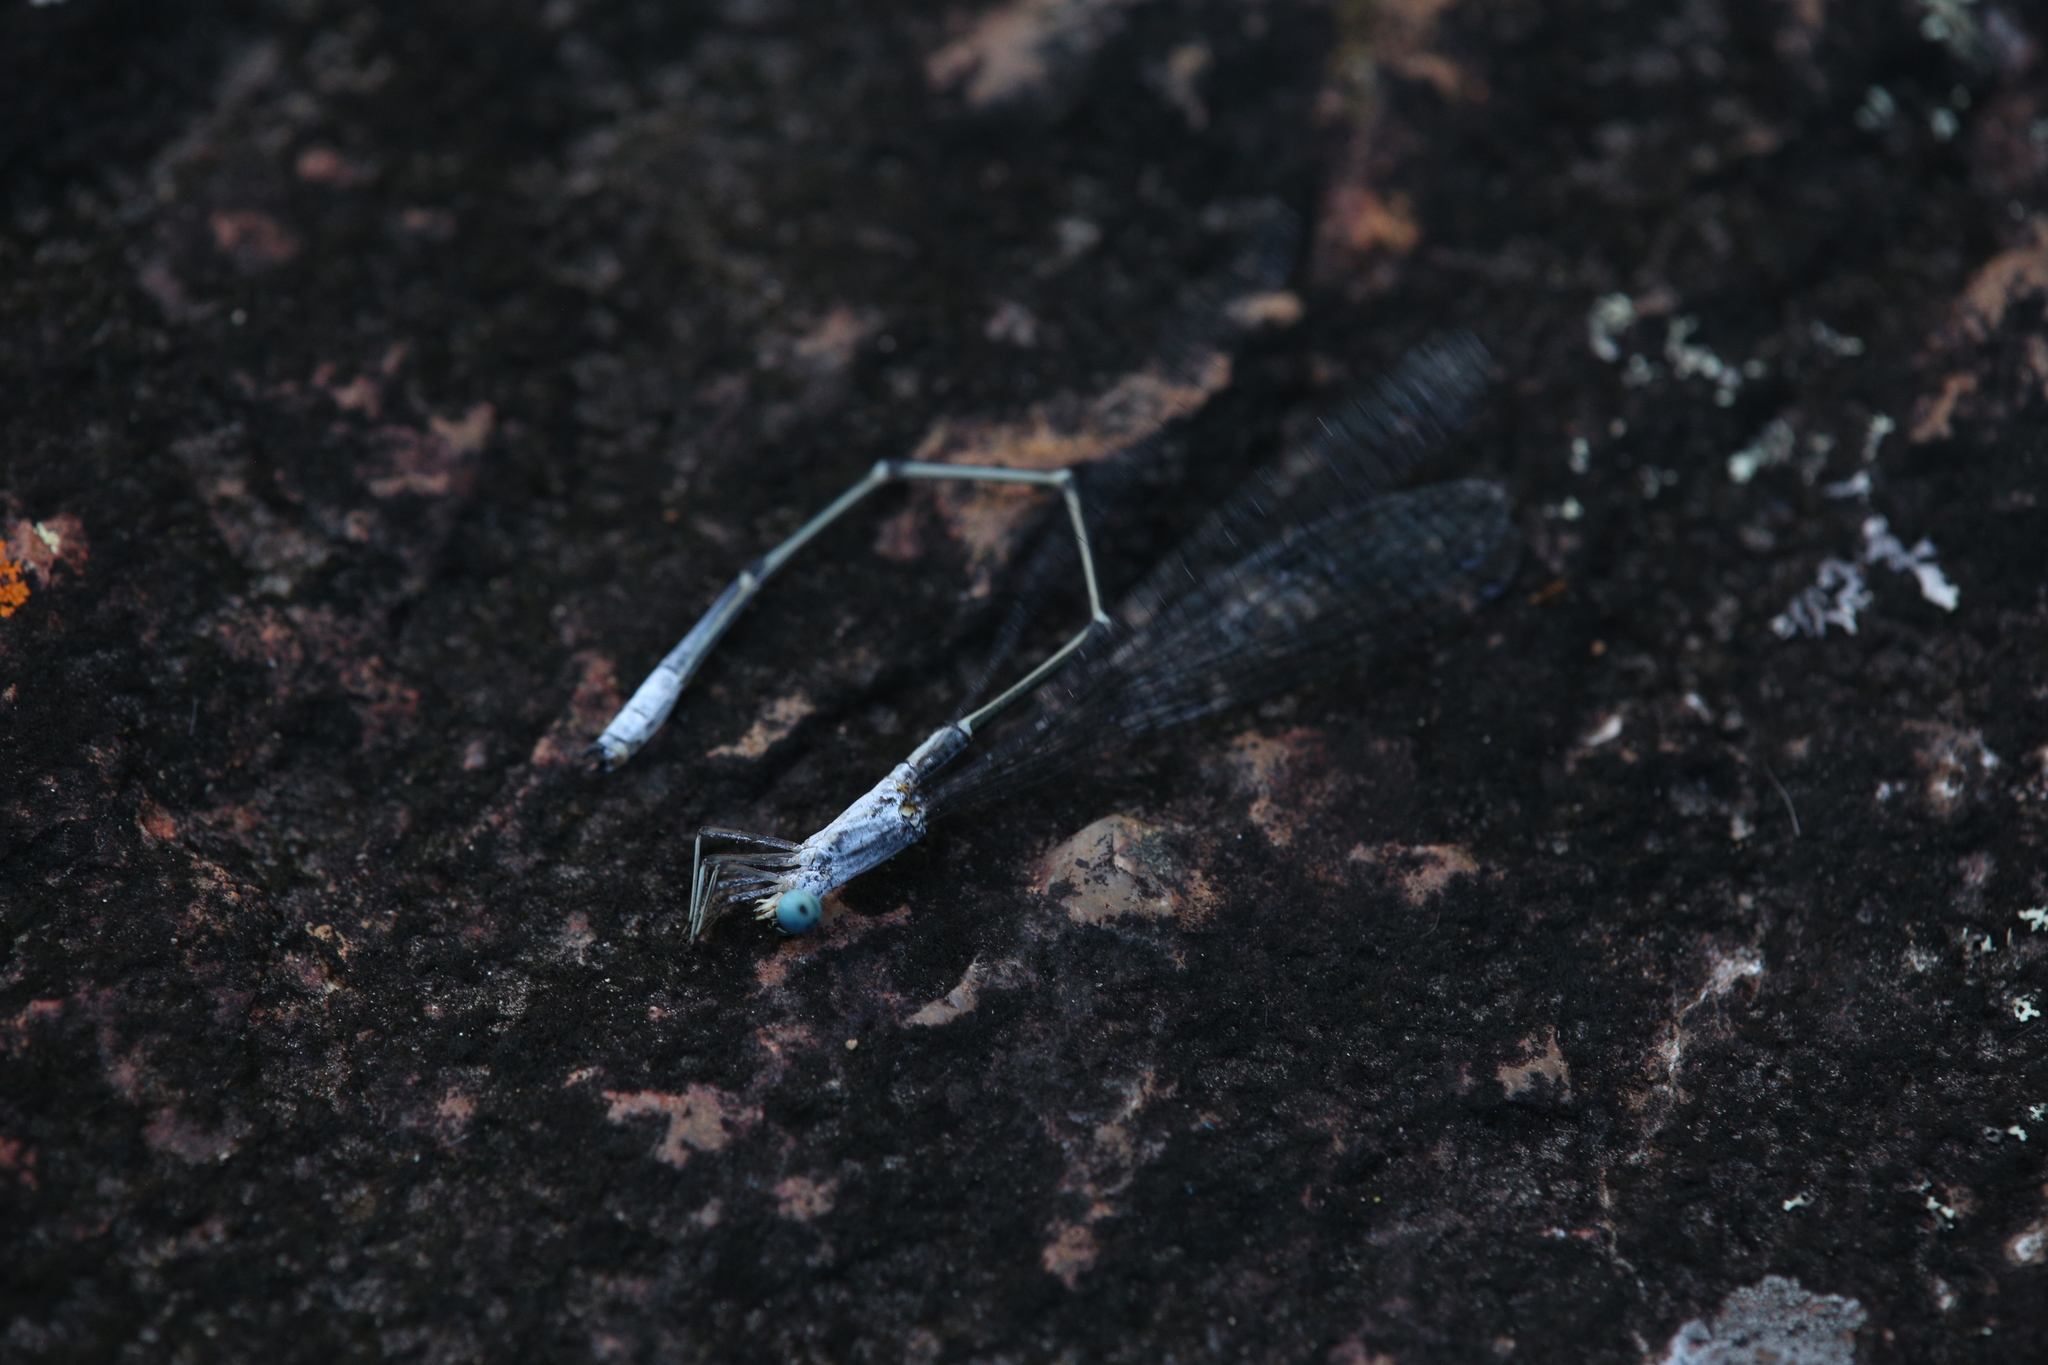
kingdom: Animalia
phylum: Arthropoda
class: Insecta
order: Odonata
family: Isostictidae
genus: Labidiosticta
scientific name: Labidiosticta vallisi
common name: Large wiretail
